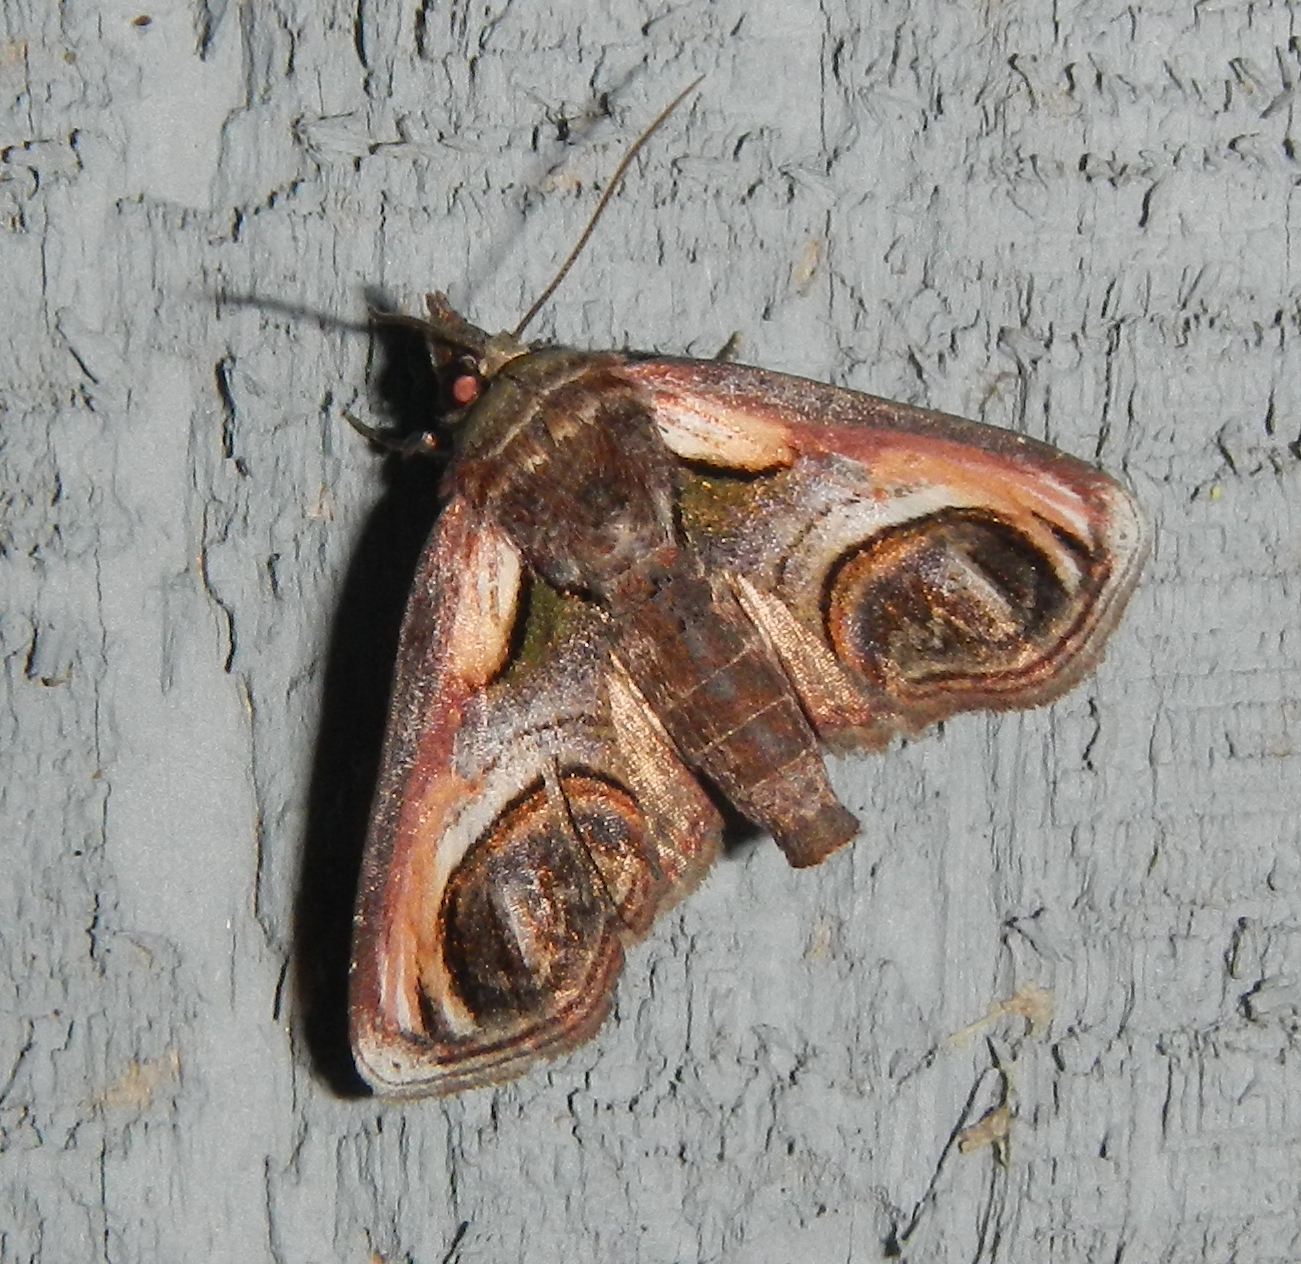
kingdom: Animalia
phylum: Arthropoda
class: Insecta
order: Lepidoptera
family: Euteliidae
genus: Paectes
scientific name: Paectes oculatrix
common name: Eyed paectes moth
